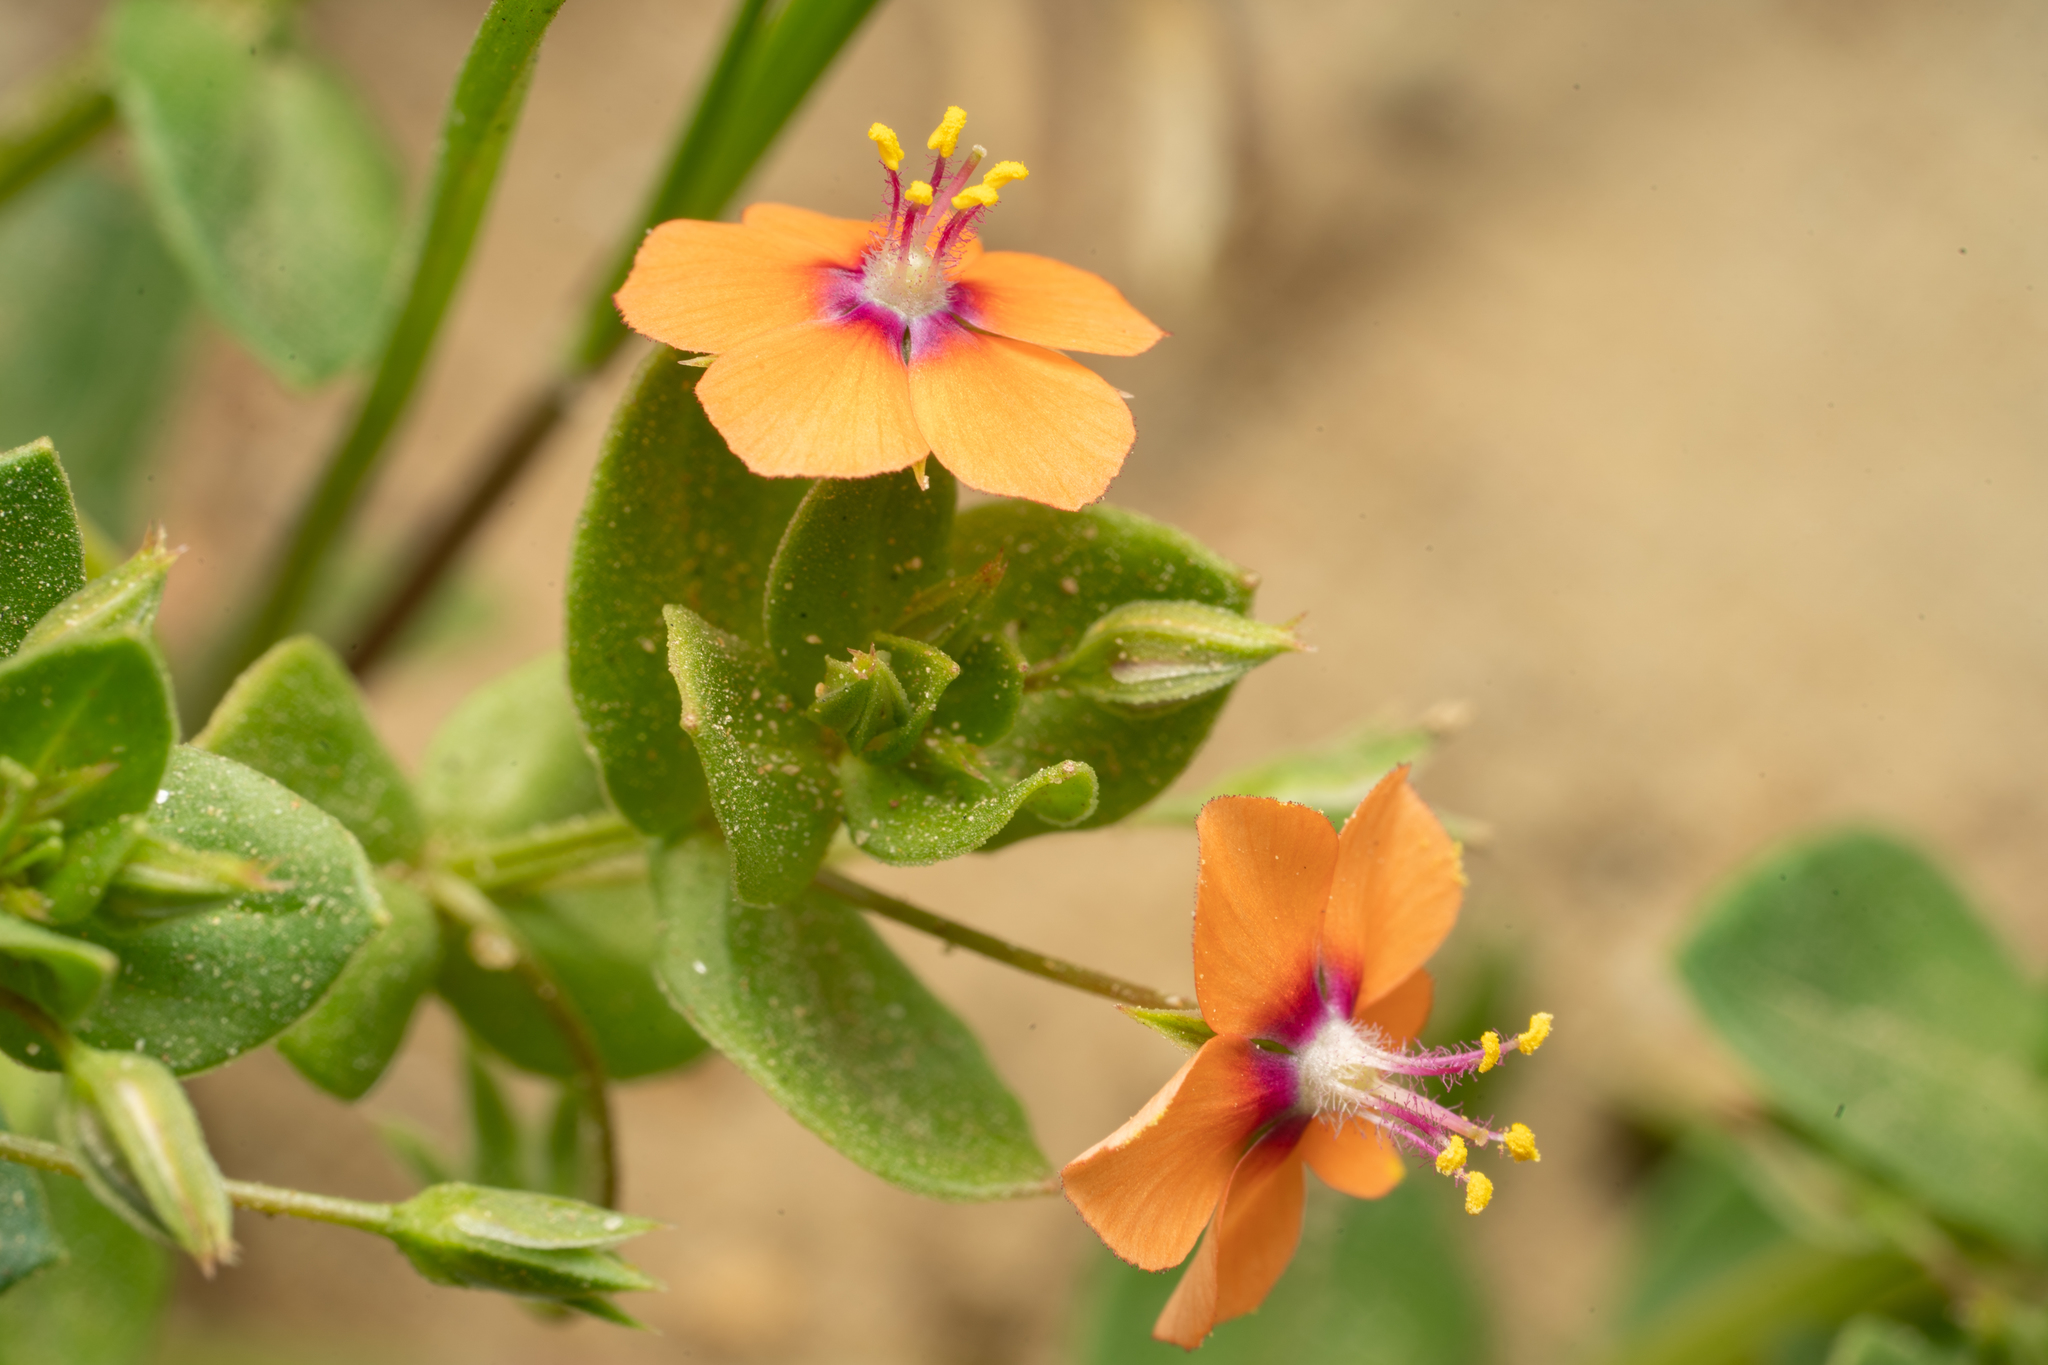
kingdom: Plantae
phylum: Tracheophyta
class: Magnoliopsida
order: Ericales
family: Primulaceae
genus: Lysimachia
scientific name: Lysimachia arvensis
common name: Scarlet pimpernel
